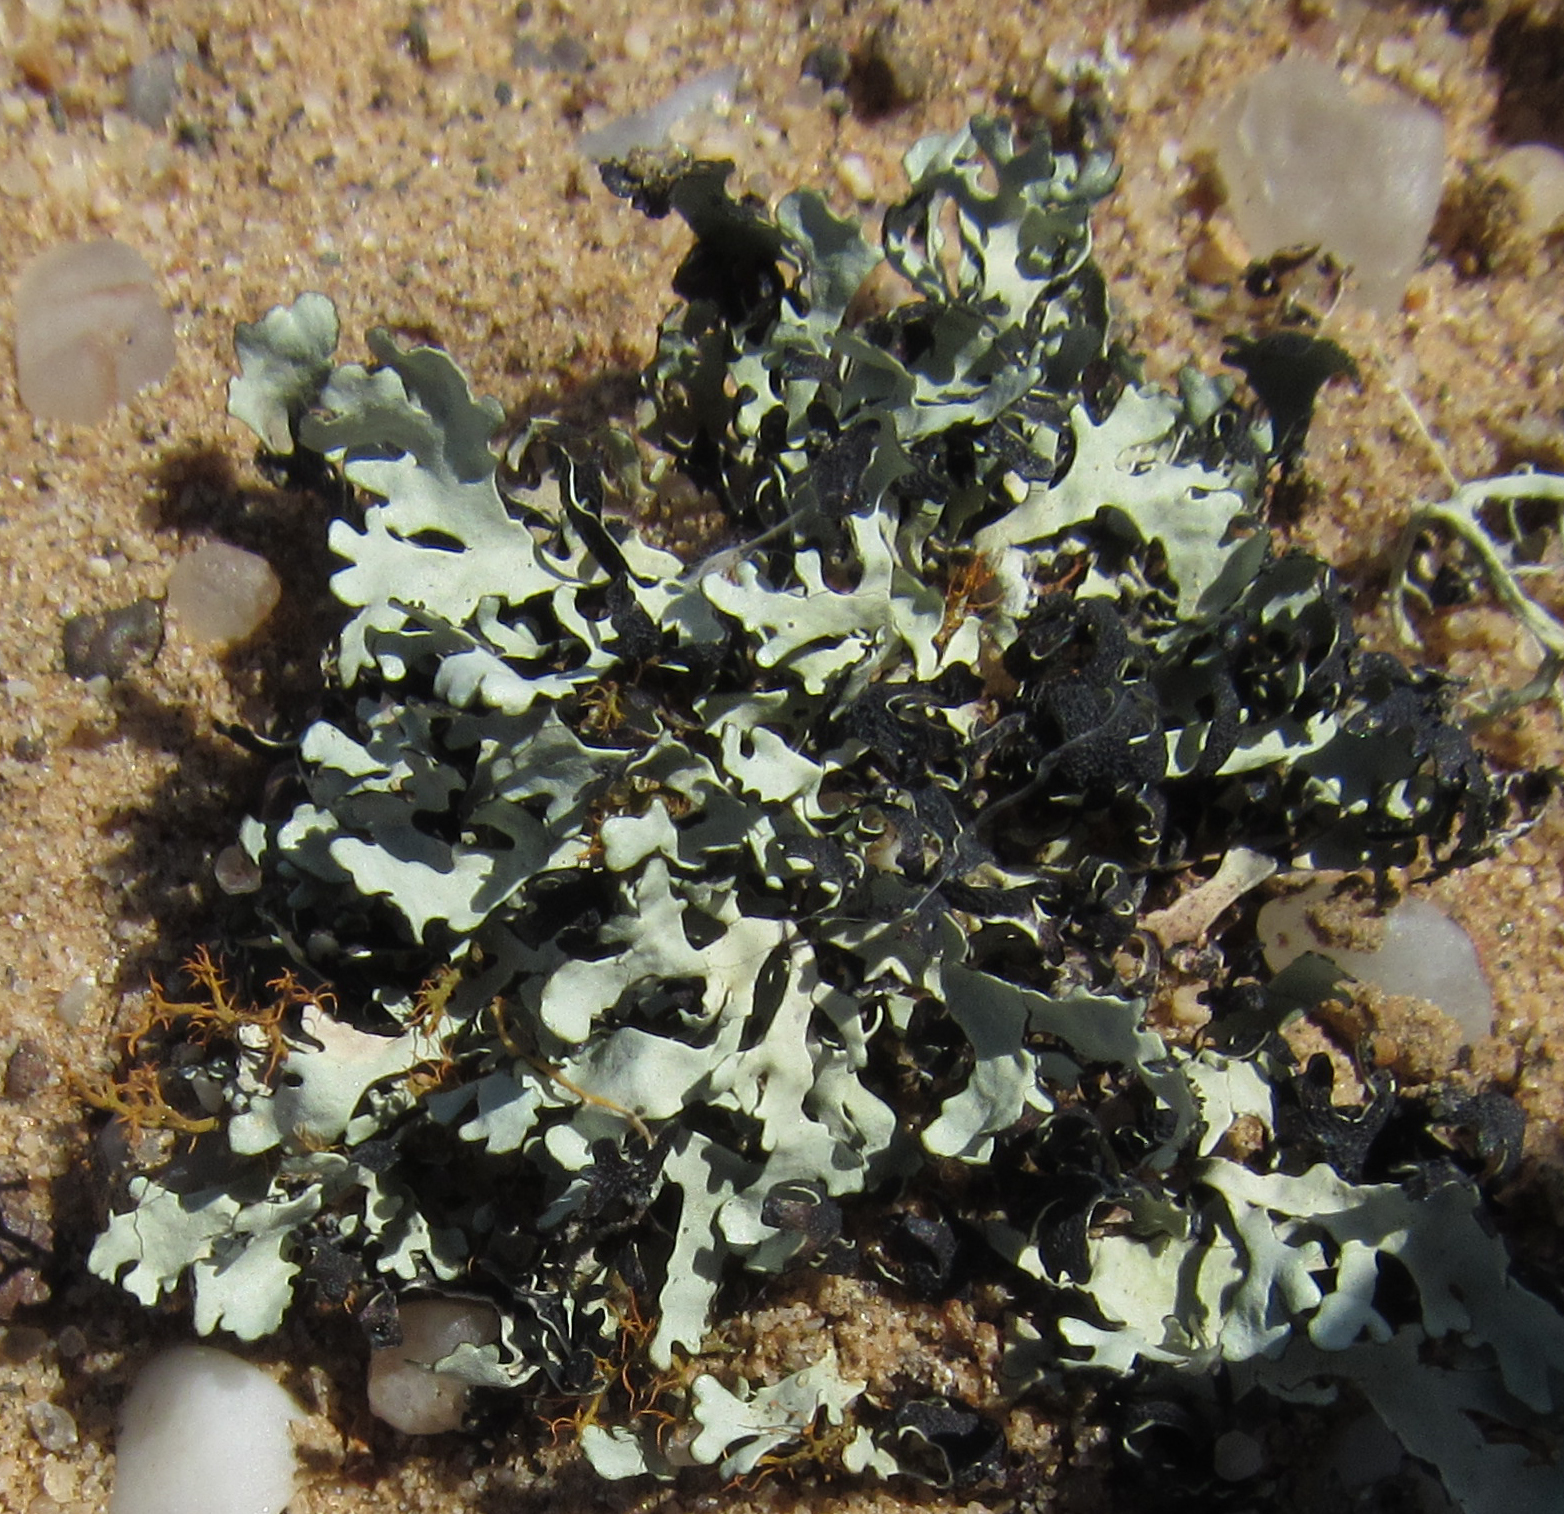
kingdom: Fungi
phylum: Ascomycota
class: Lecanoromycetes
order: Lecanorales
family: Parmeliaceae
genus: Xanthoparmelia
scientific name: Xanthoparmelia walteri
